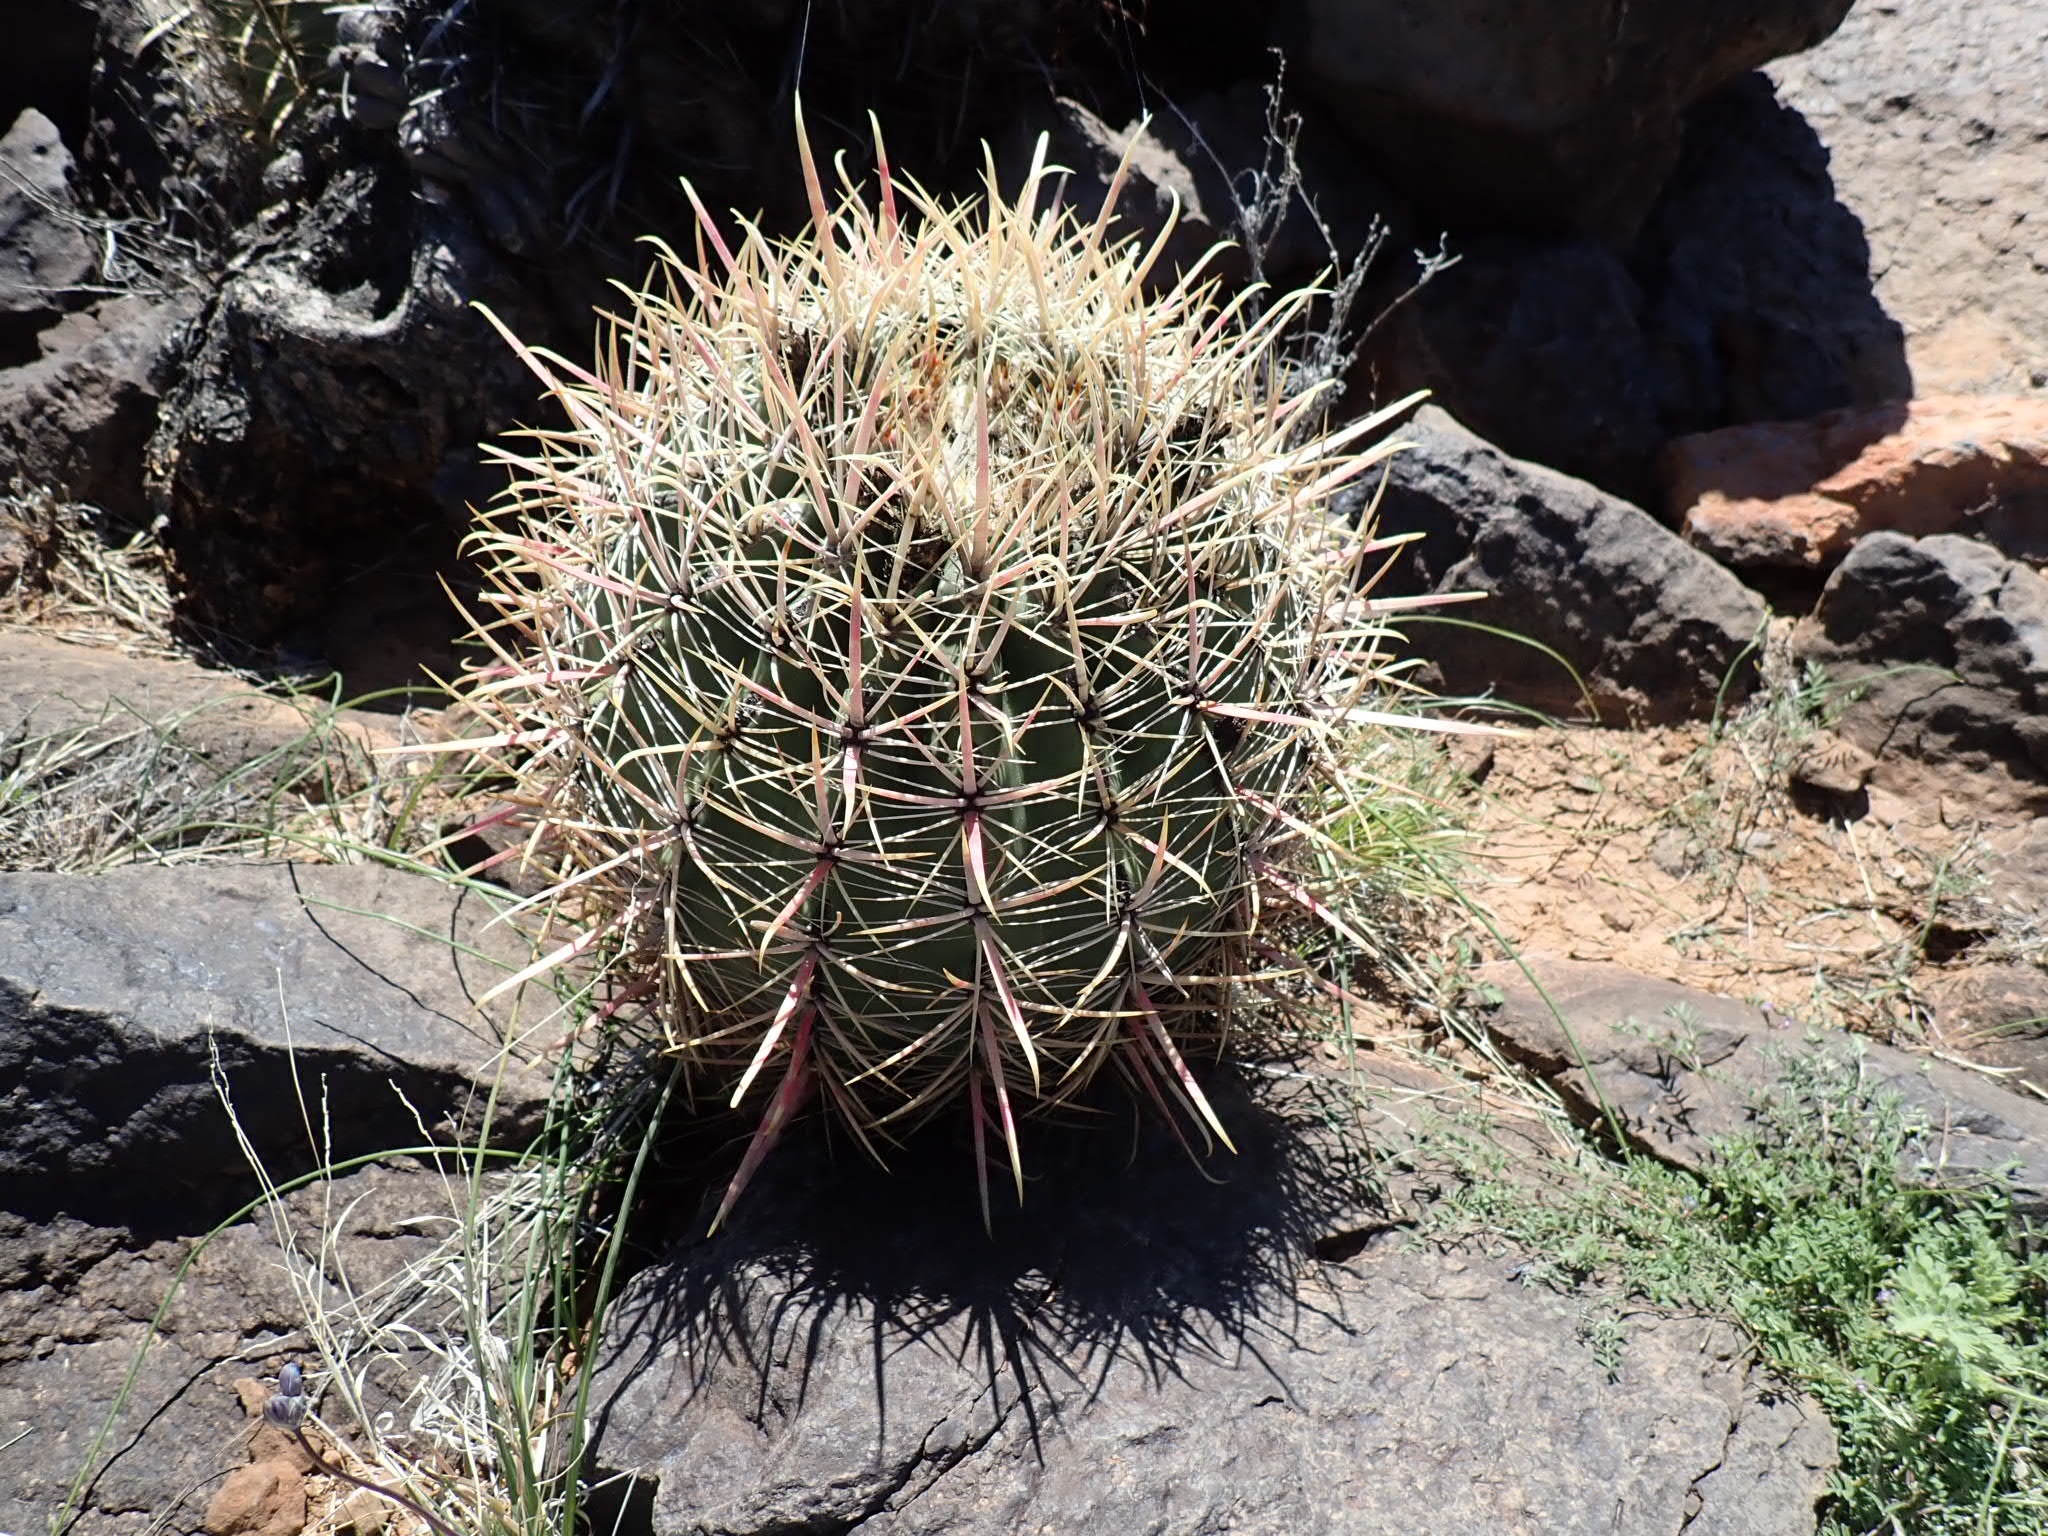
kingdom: Plantae
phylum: Tracheophyta
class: Magnoliopsida
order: Caryophyllales
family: Cactaceae
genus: Ferocactus
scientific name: Ferocactus cylindraceus
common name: California barrel cactus
